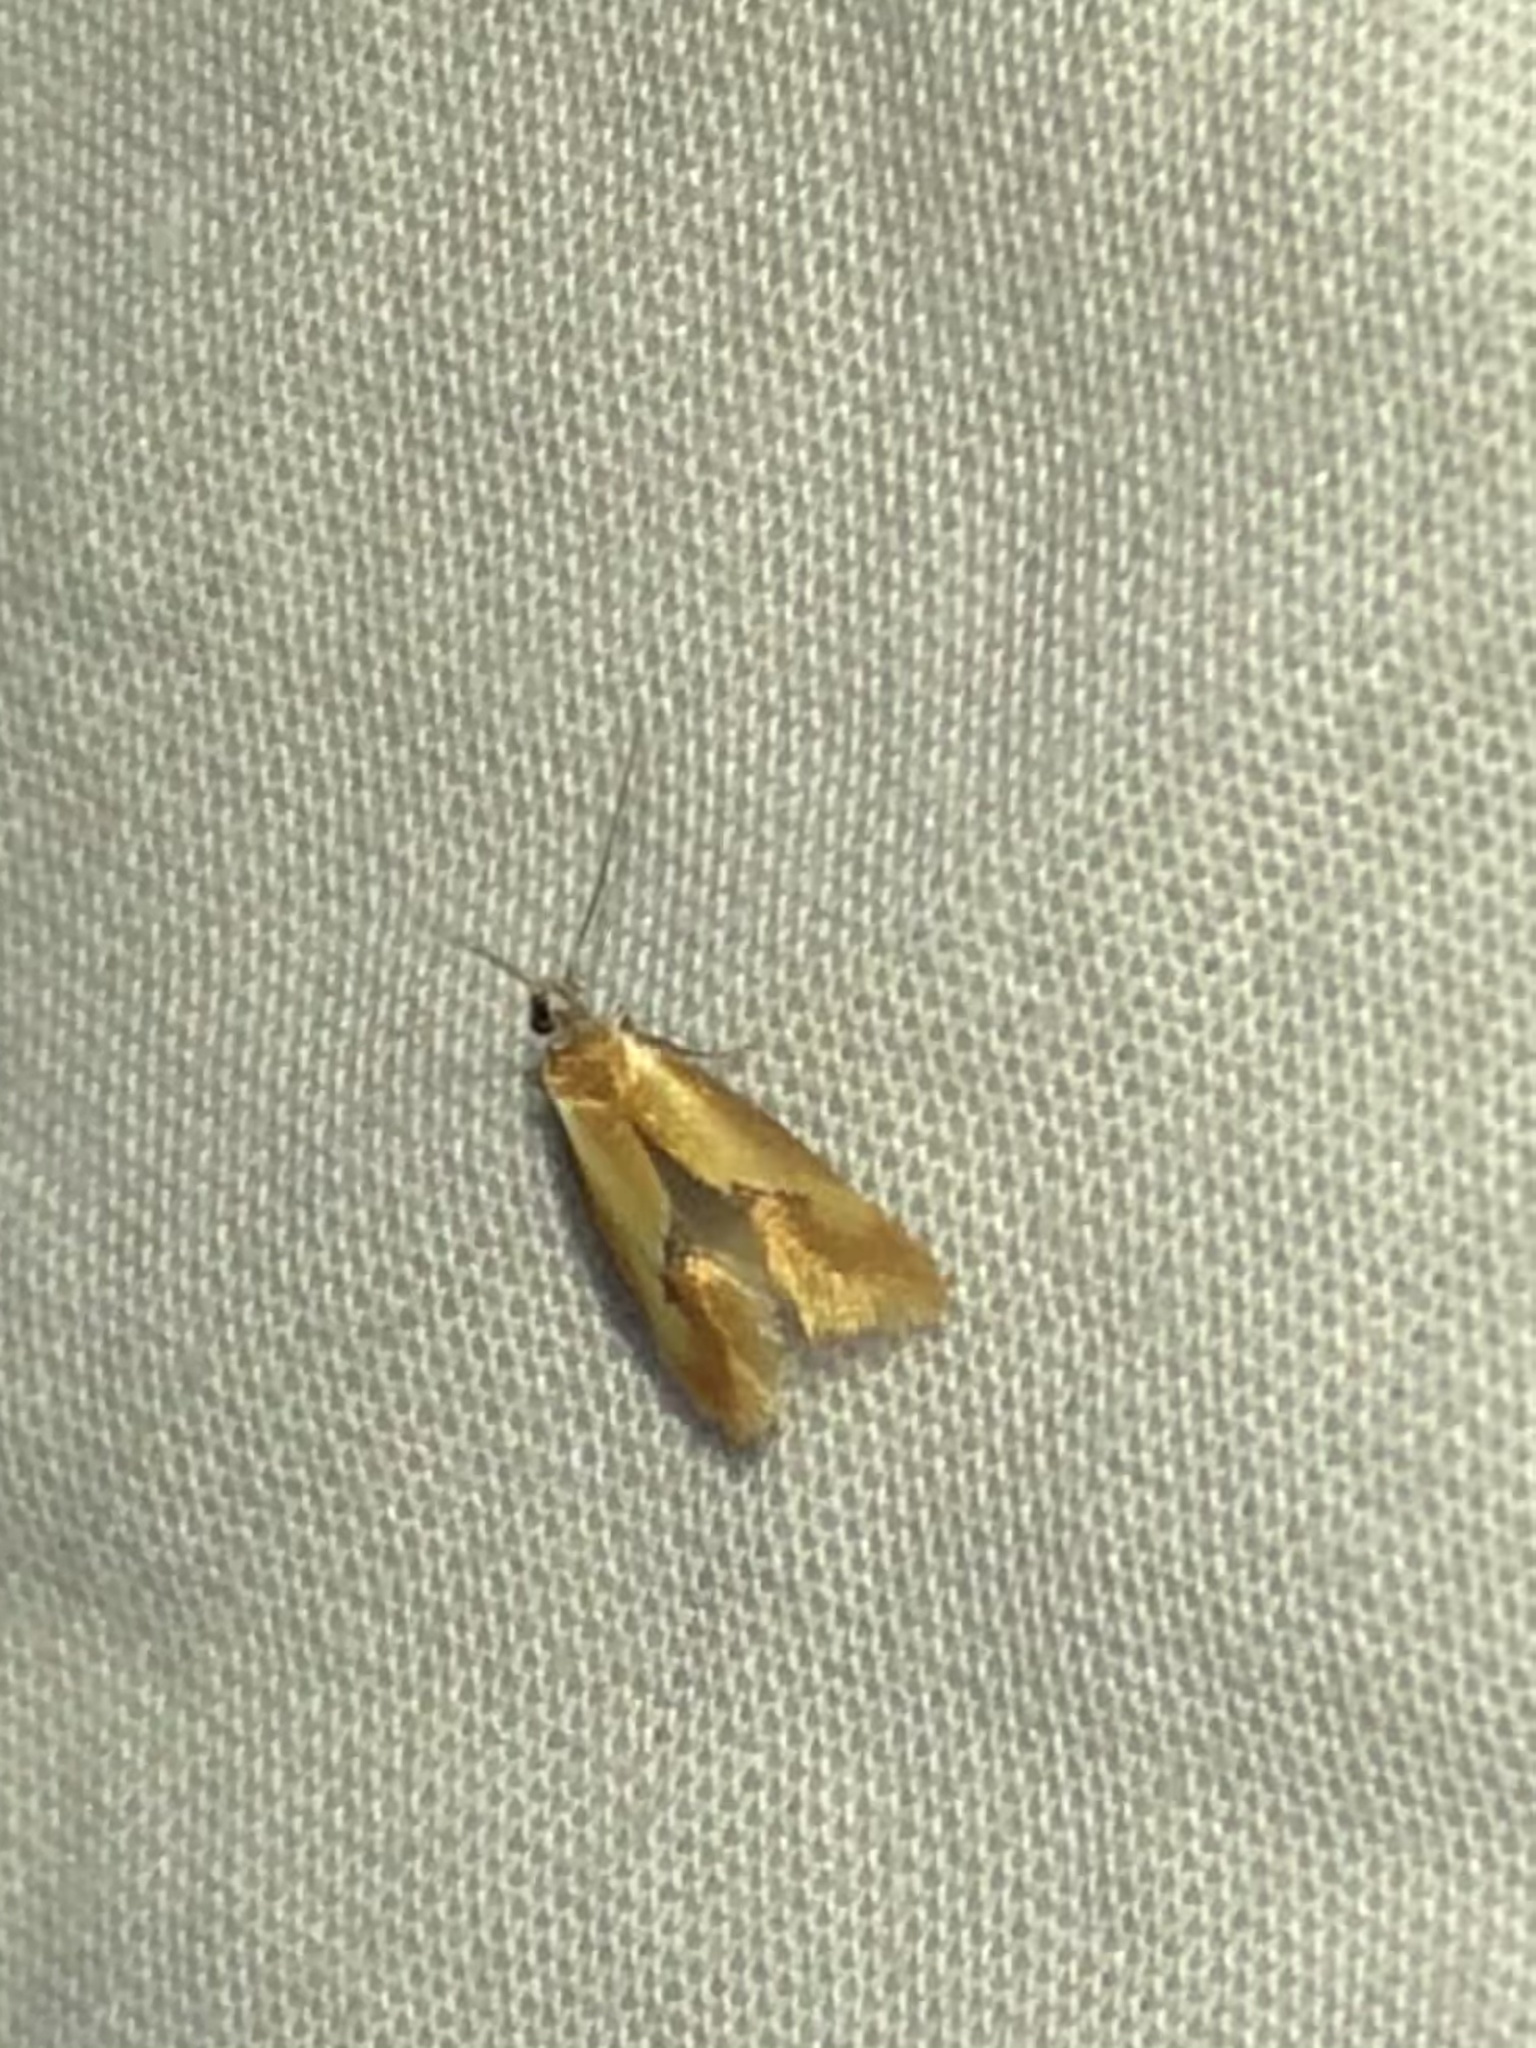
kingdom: Animalia
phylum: Arthropoda
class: Insecta
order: Lepidoptera
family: Oecophoridae
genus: Batia
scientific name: Batia lunaris
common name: Moth
